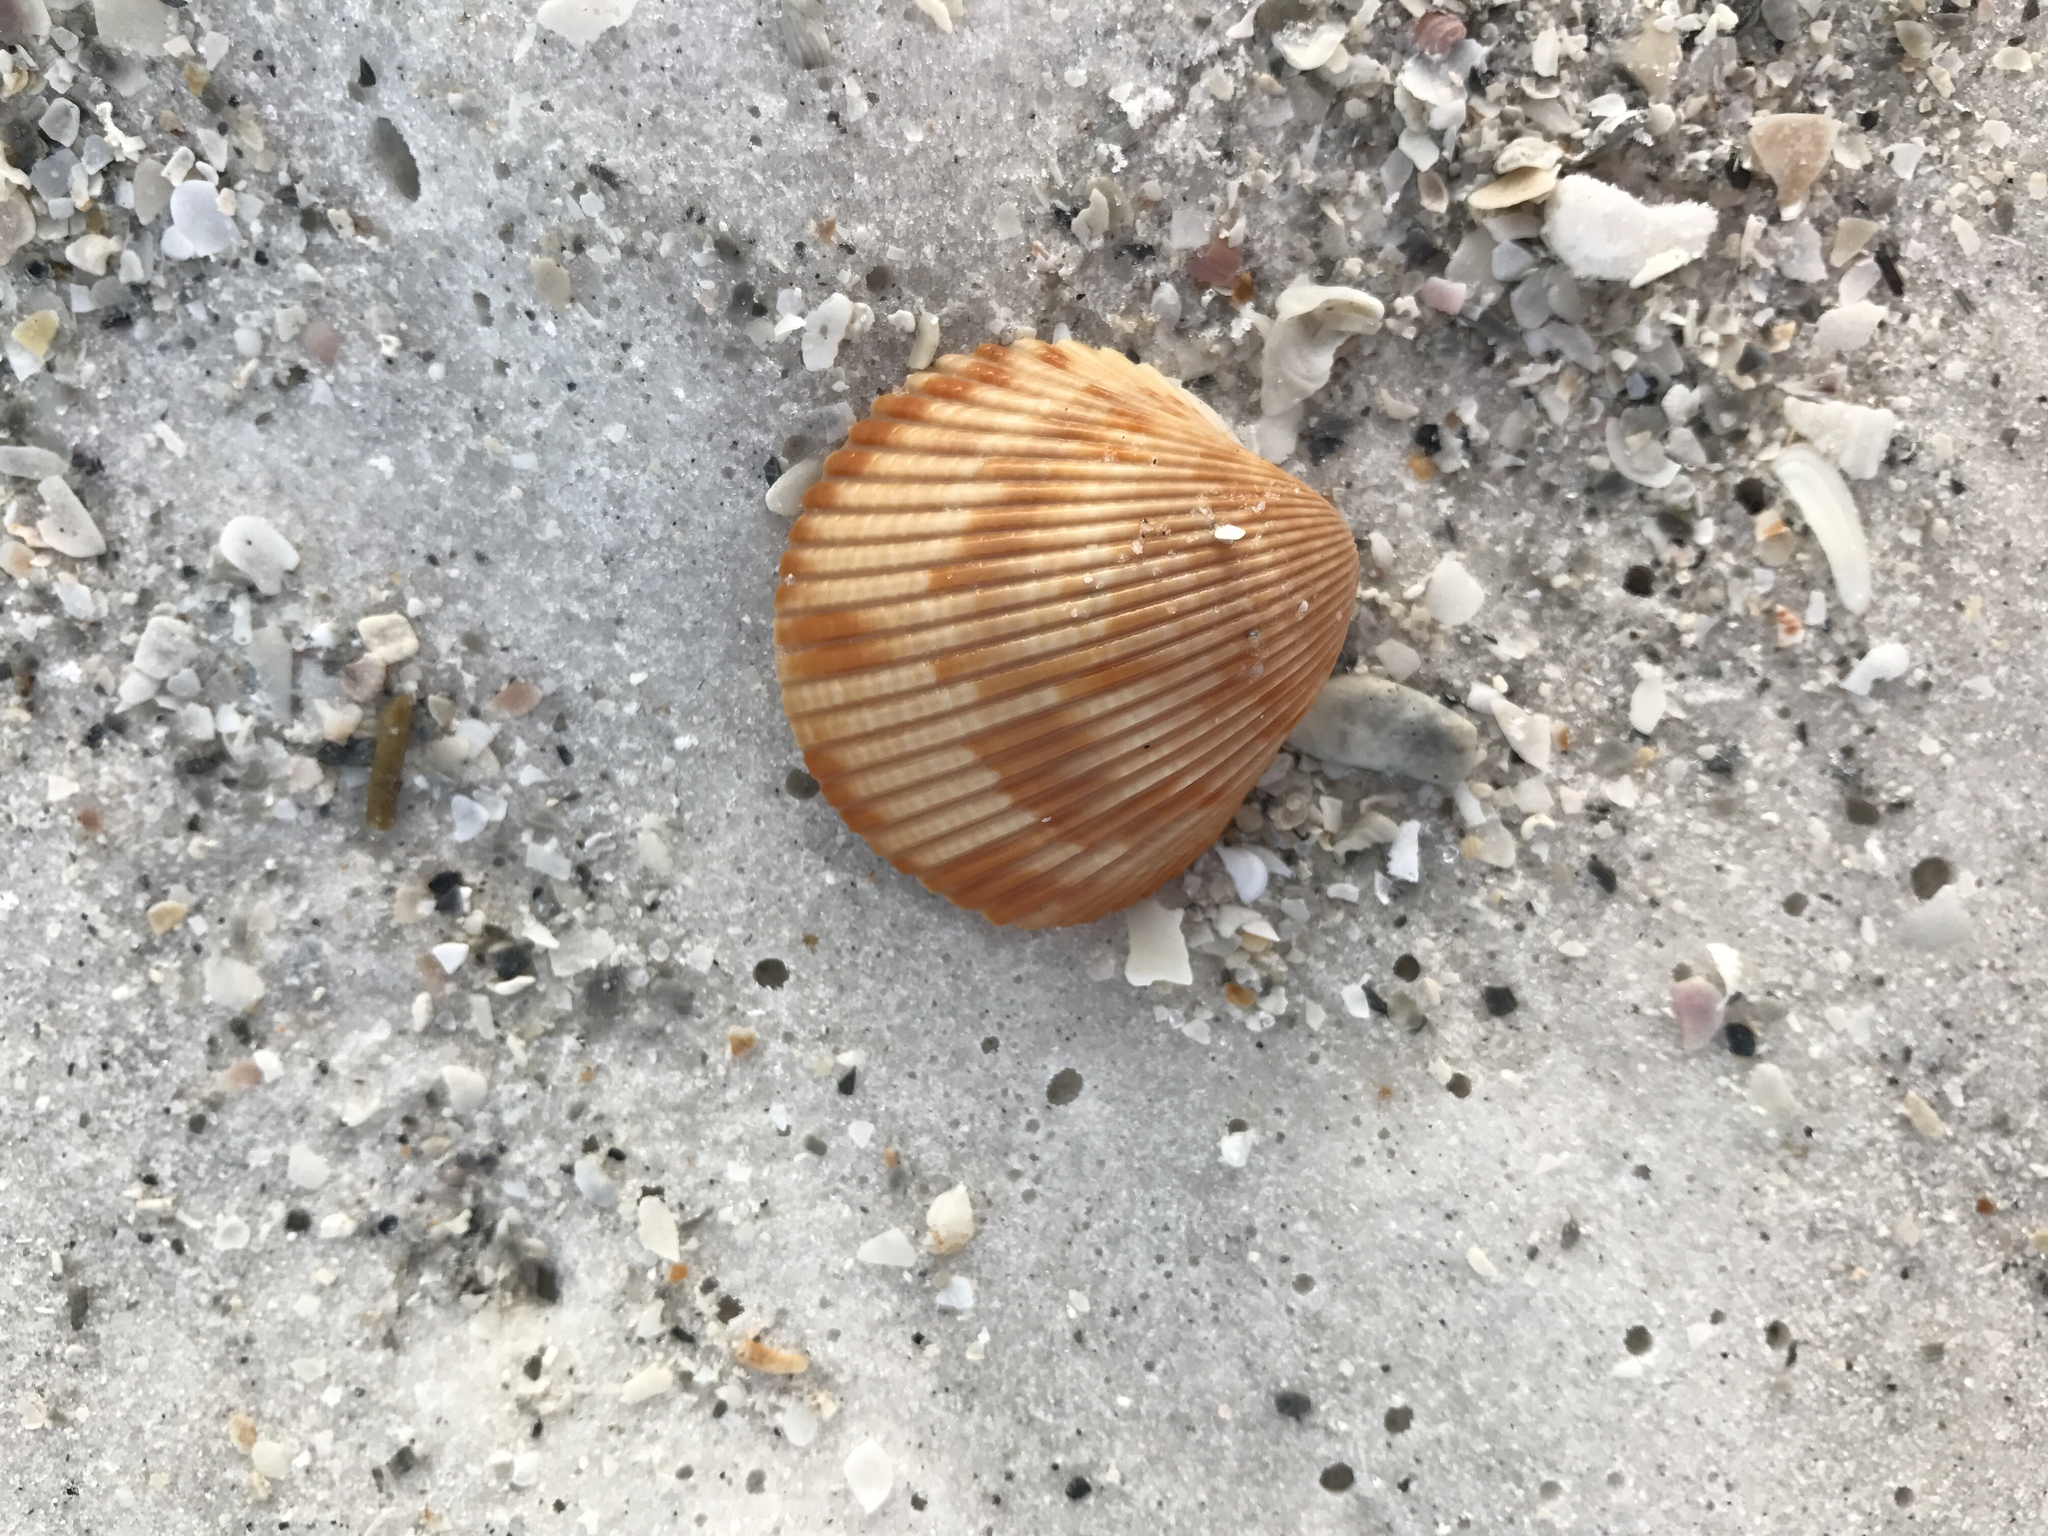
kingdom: Animalia
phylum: Mollusca
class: Bivalvia
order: Cardiida
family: Cardiidae
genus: Dinocardium
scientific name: Dinocardium robustum
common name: Atlantic giant cockle
